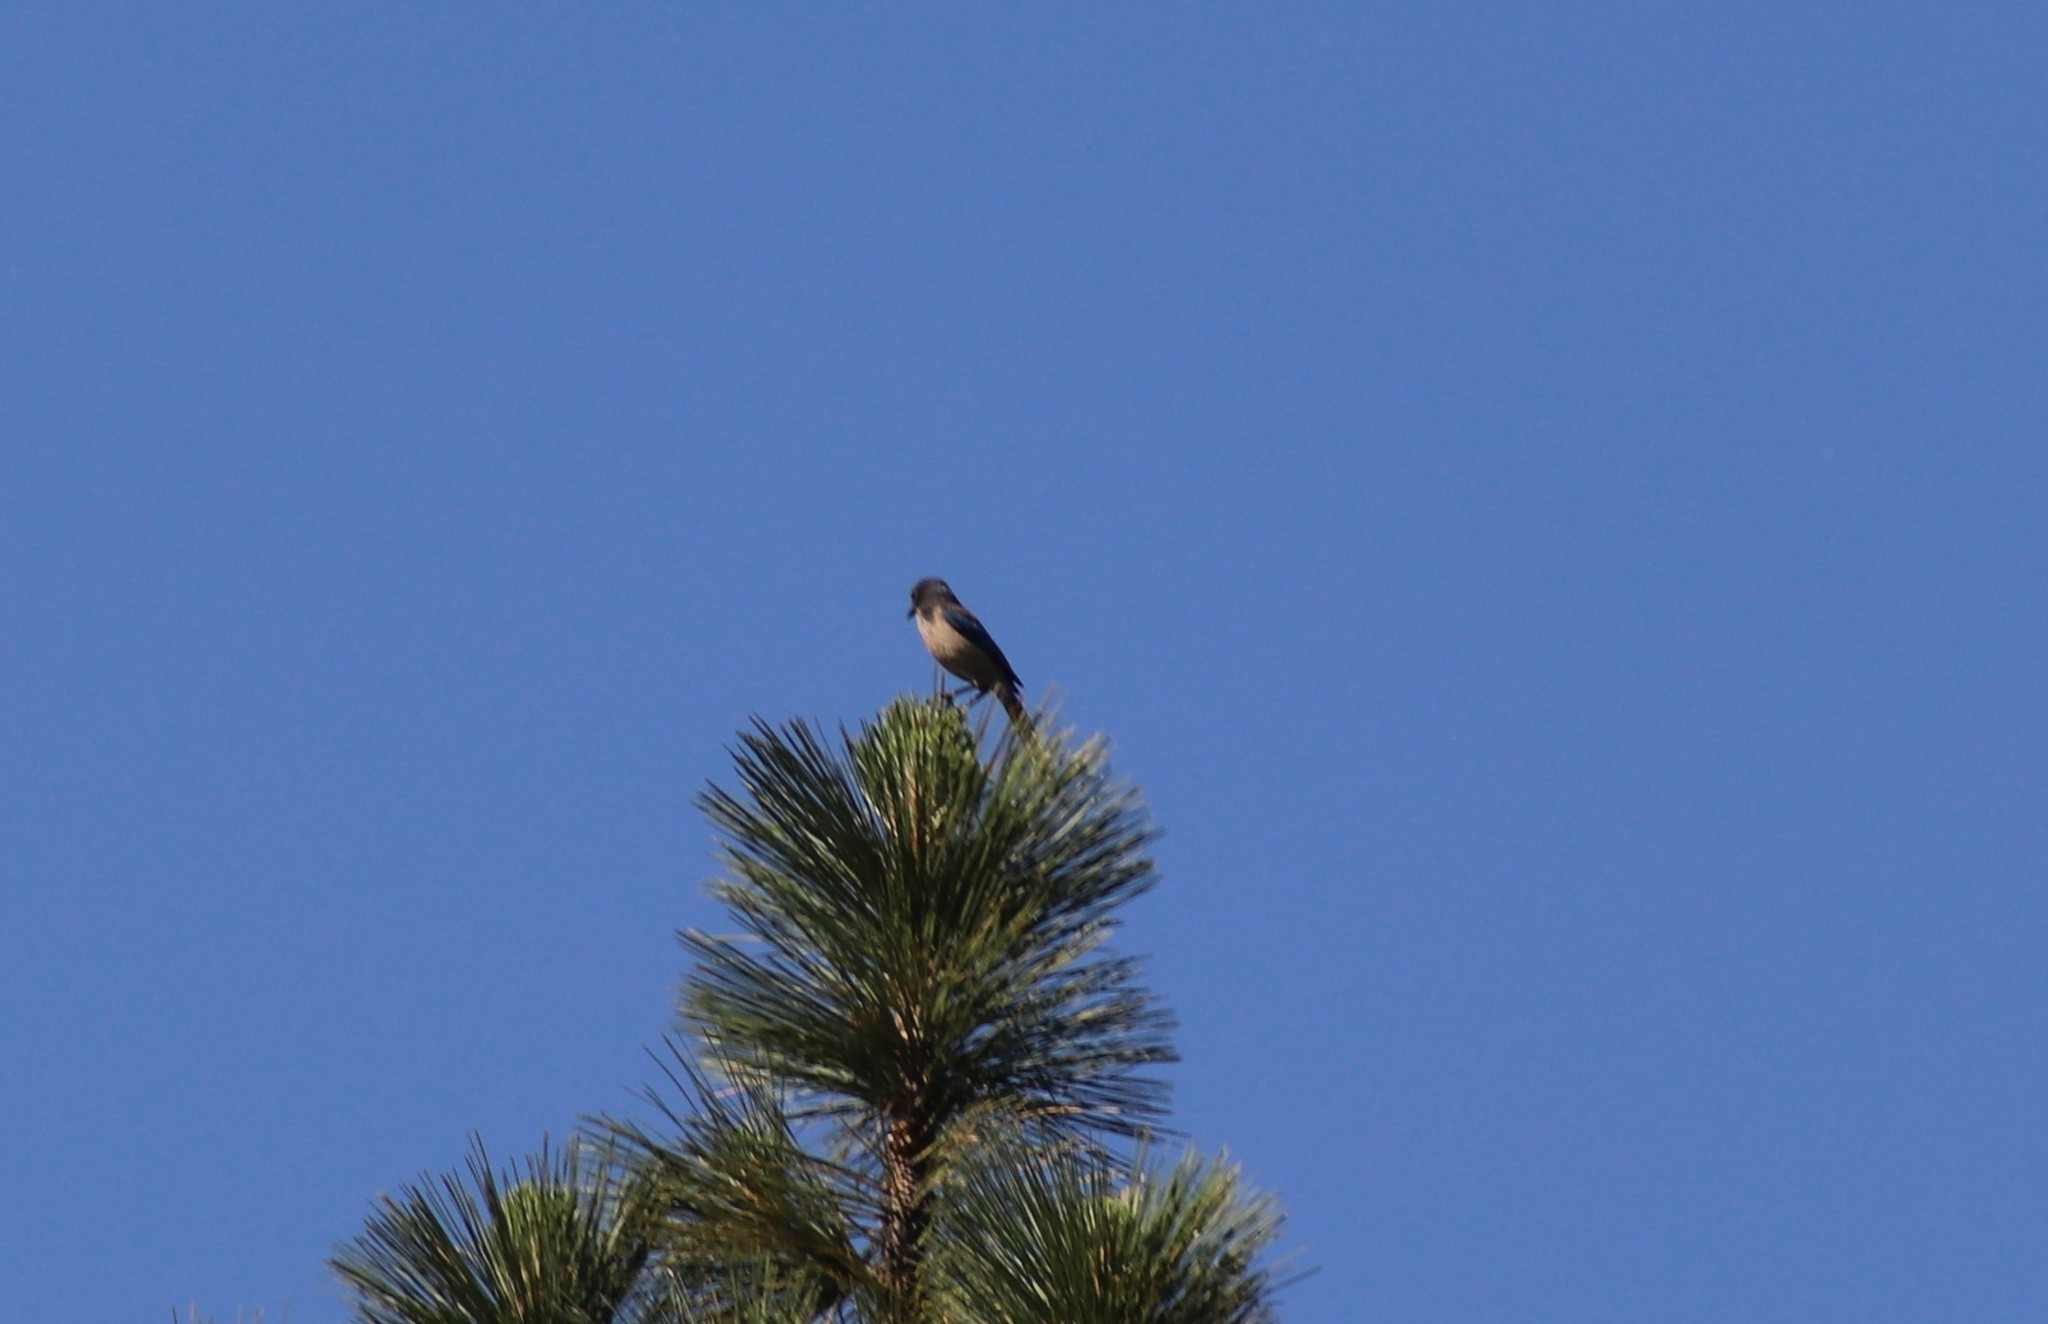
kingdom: Animalia
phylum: Chordata
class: Aves
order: Passeriformes
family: Corvidae
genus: Aphelocoma
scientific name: Aphelocoma californica
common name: California scrub-jay
